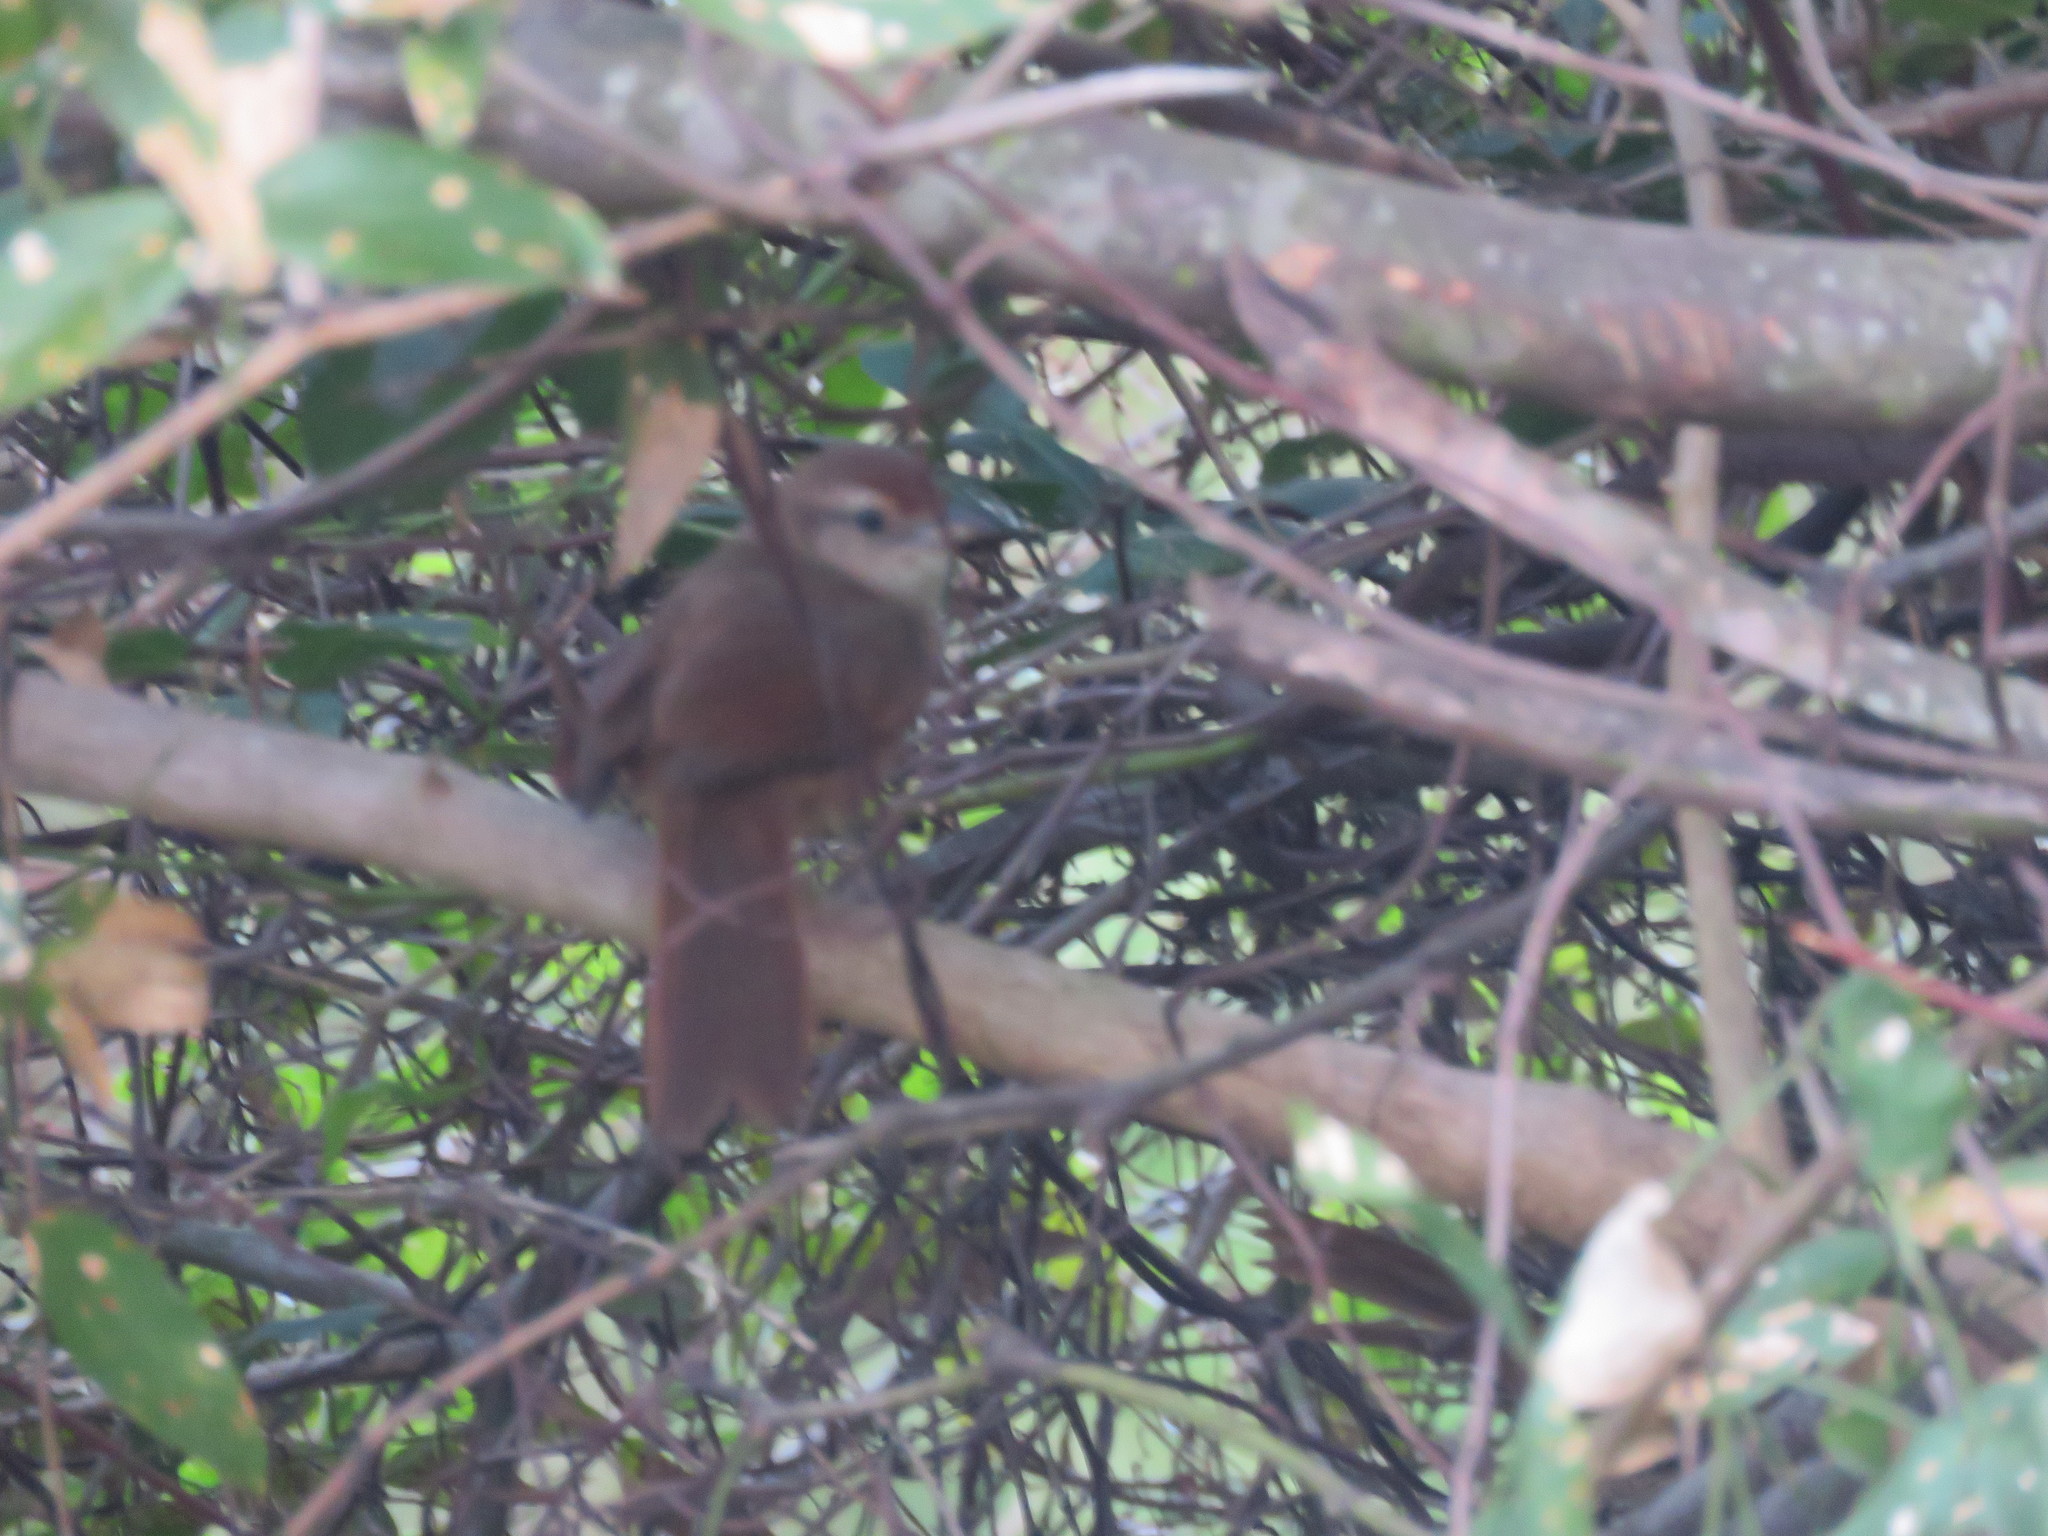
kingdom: Animalia
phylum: Chordata
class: Aves
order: Passeriformes
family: Furnariidae
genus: Phacellodomus
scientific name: Phacellodomus rufifrons
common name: Rufous-fronted thornbird
